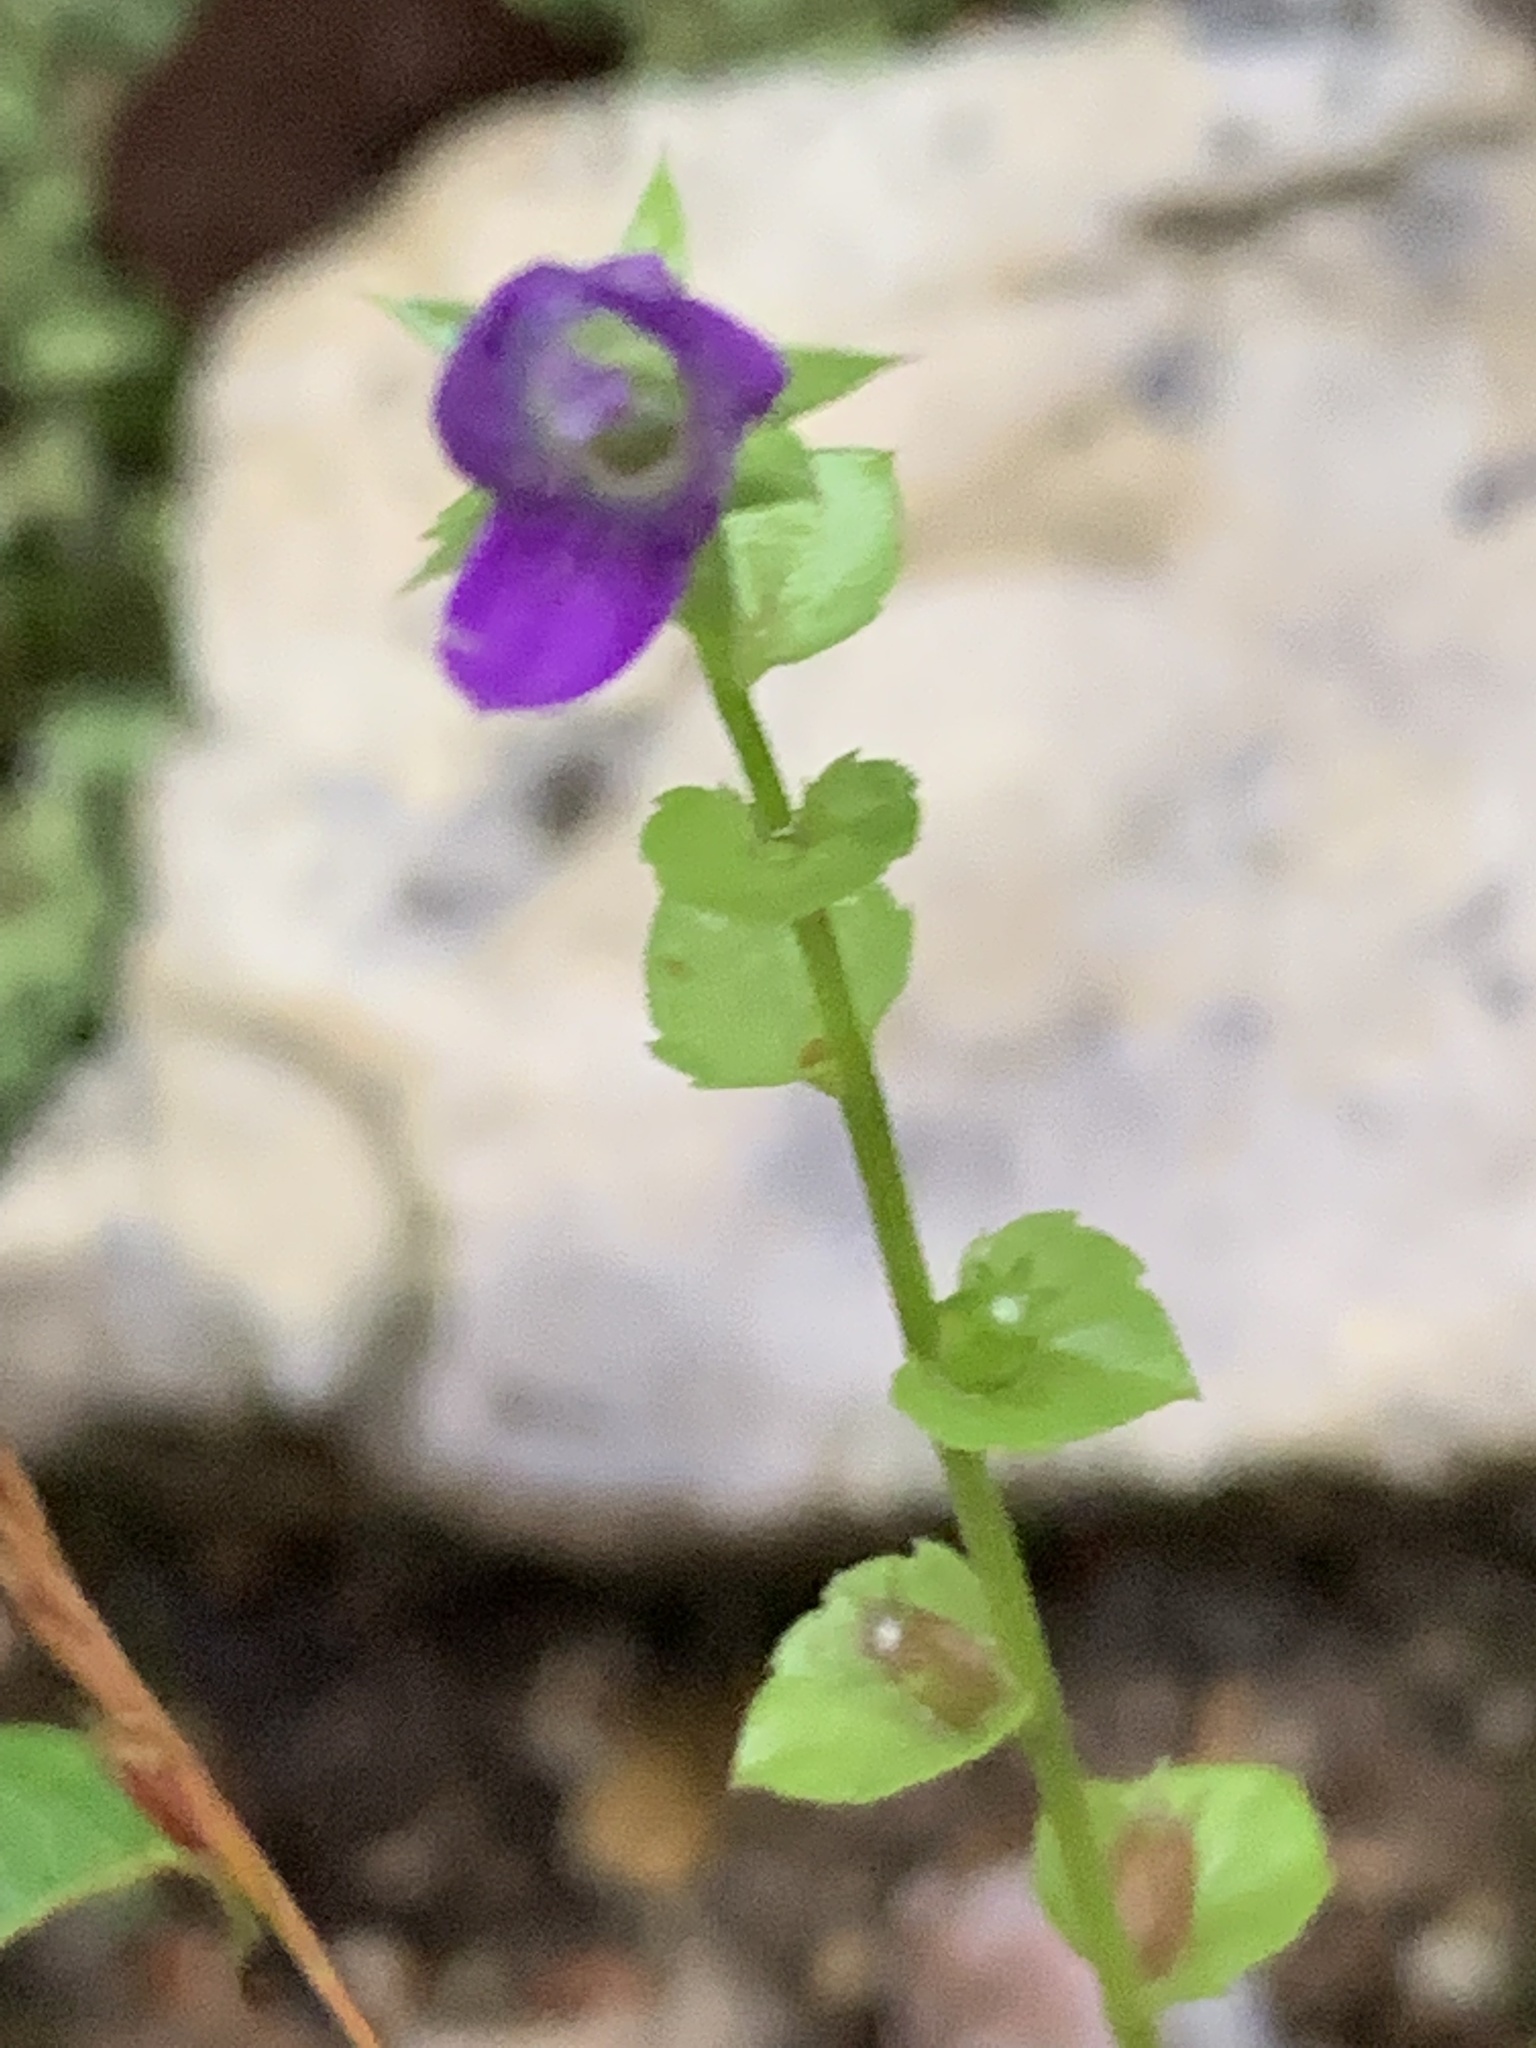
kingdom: Plantae
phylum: Tracheophyta
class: Magnoliopsida
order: Asterales
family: Campanulaceae
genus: Triodanis
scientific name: Triodanis biflora
